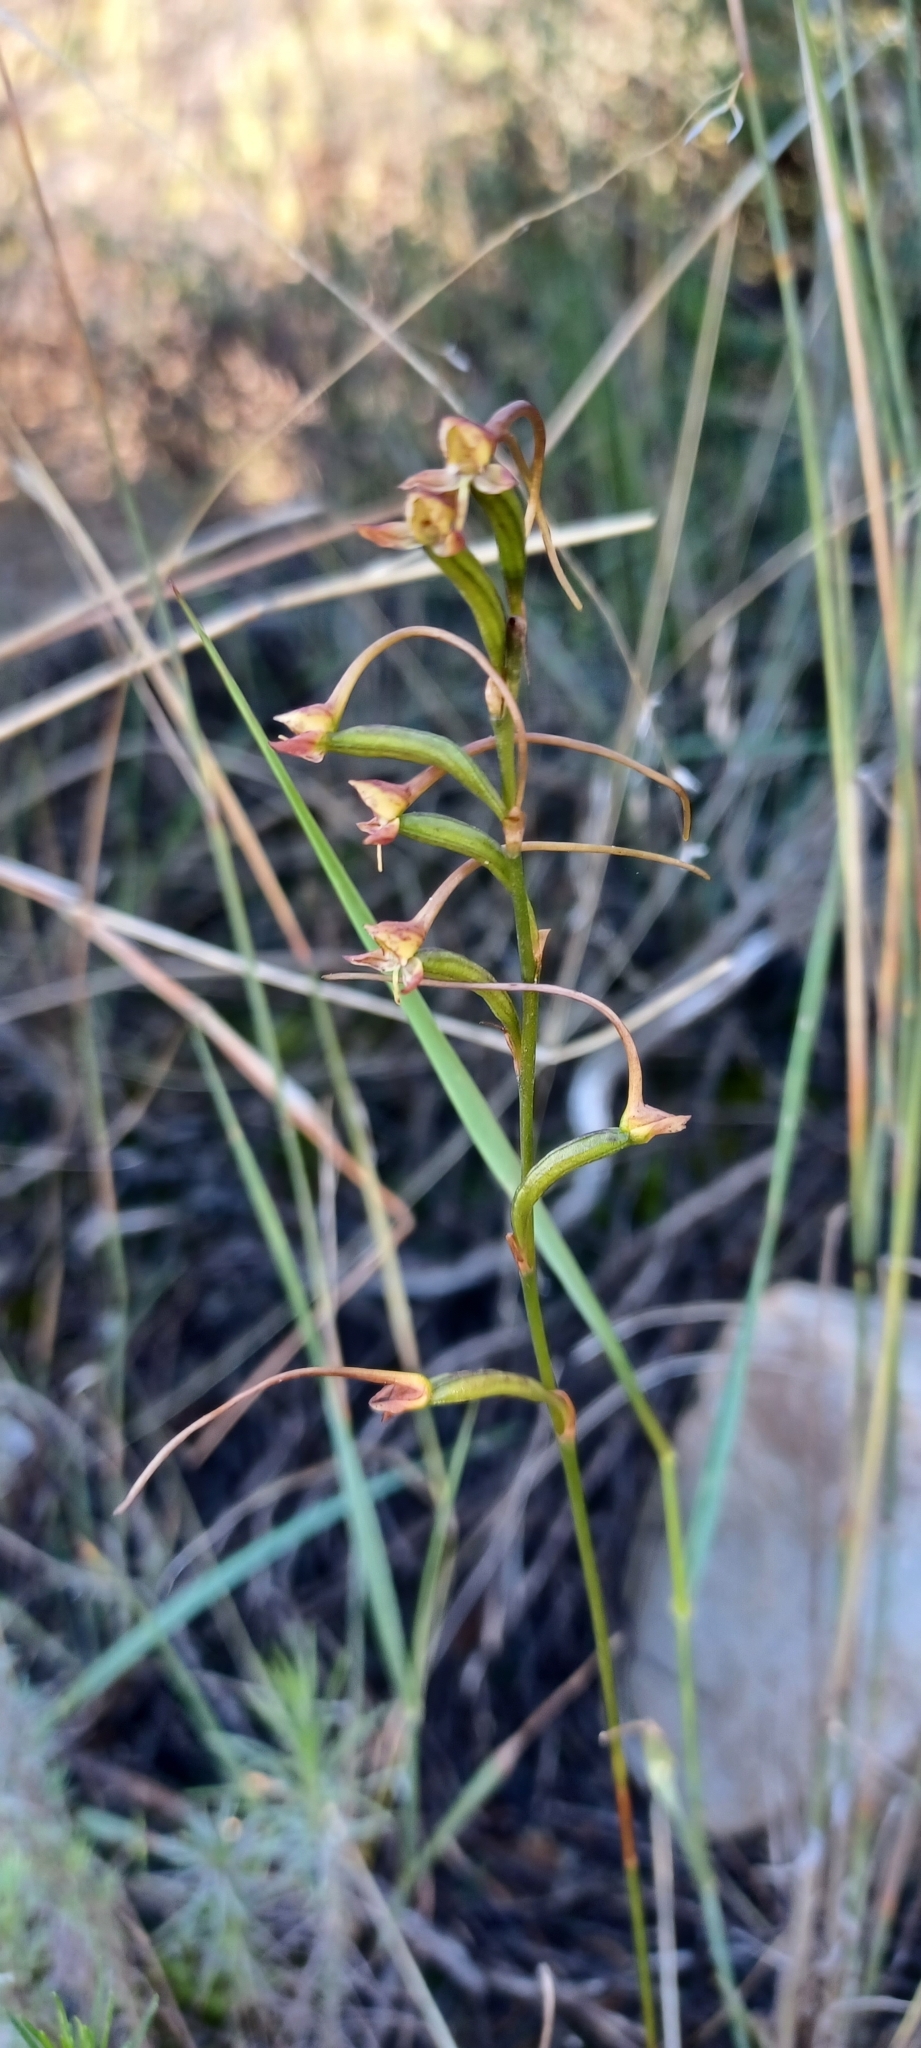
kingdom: Plantae
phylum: Tracheophyta
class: Liliopsida
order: Asparagales
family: Orchidaceae
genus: Disa
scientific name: Disa salteri
